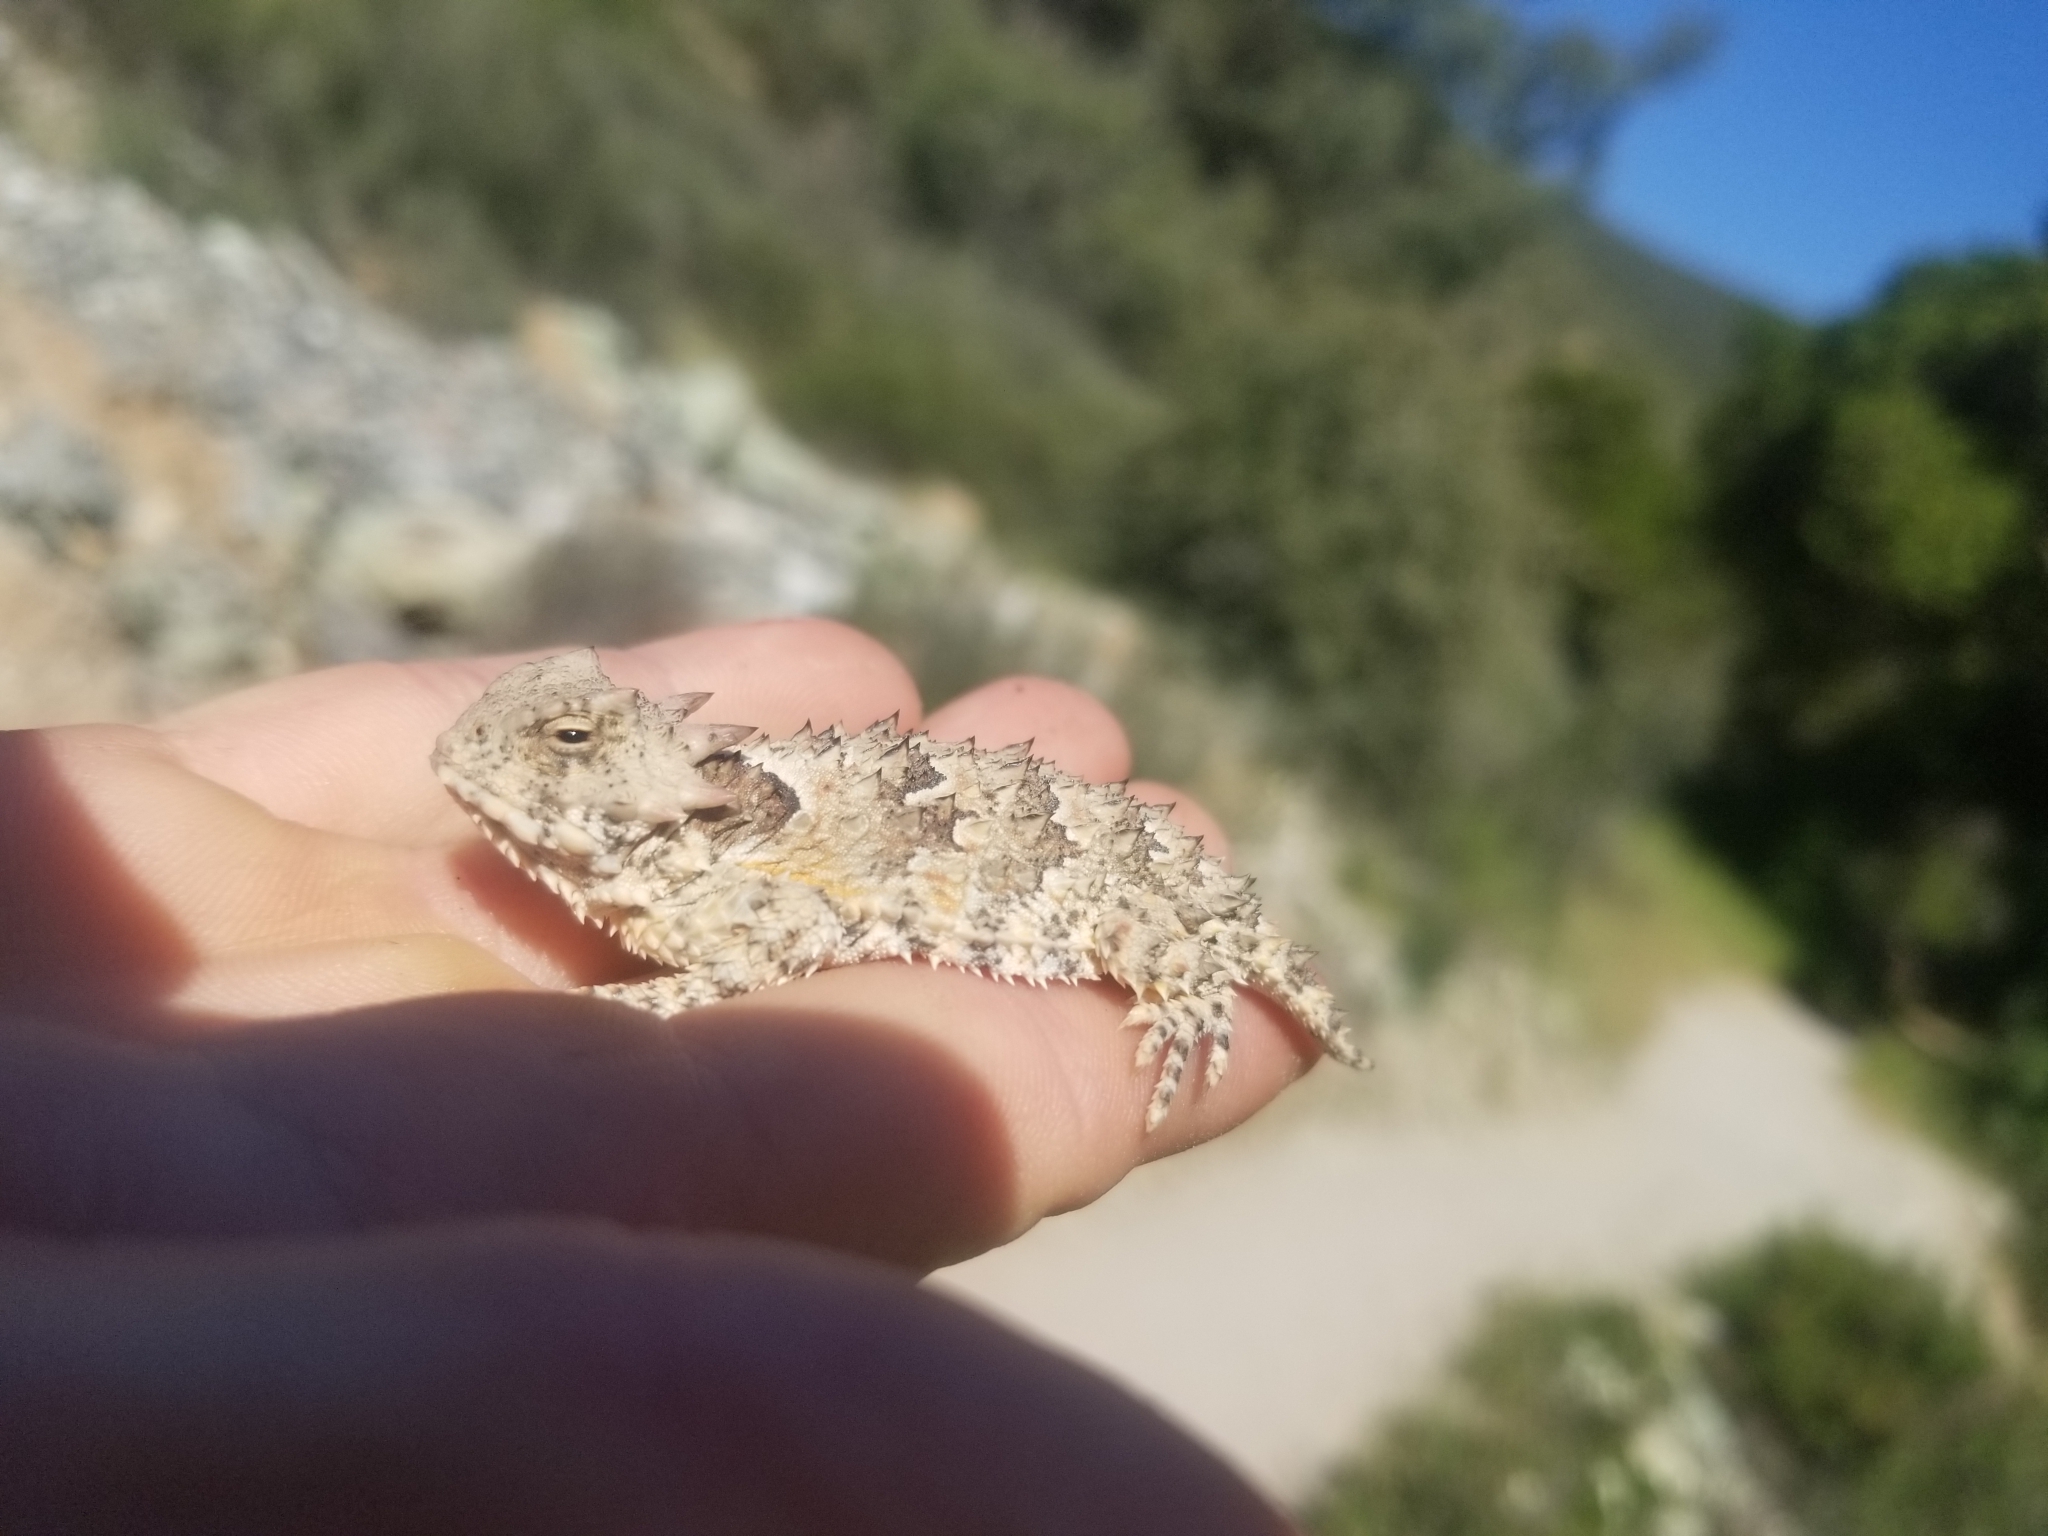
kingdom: Animalia
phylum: Chordata
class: Squamata
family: Phrynosomatidae
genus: Phrynosoma
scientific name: Phrynosoma blainvillii
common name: San diego horned lizard
